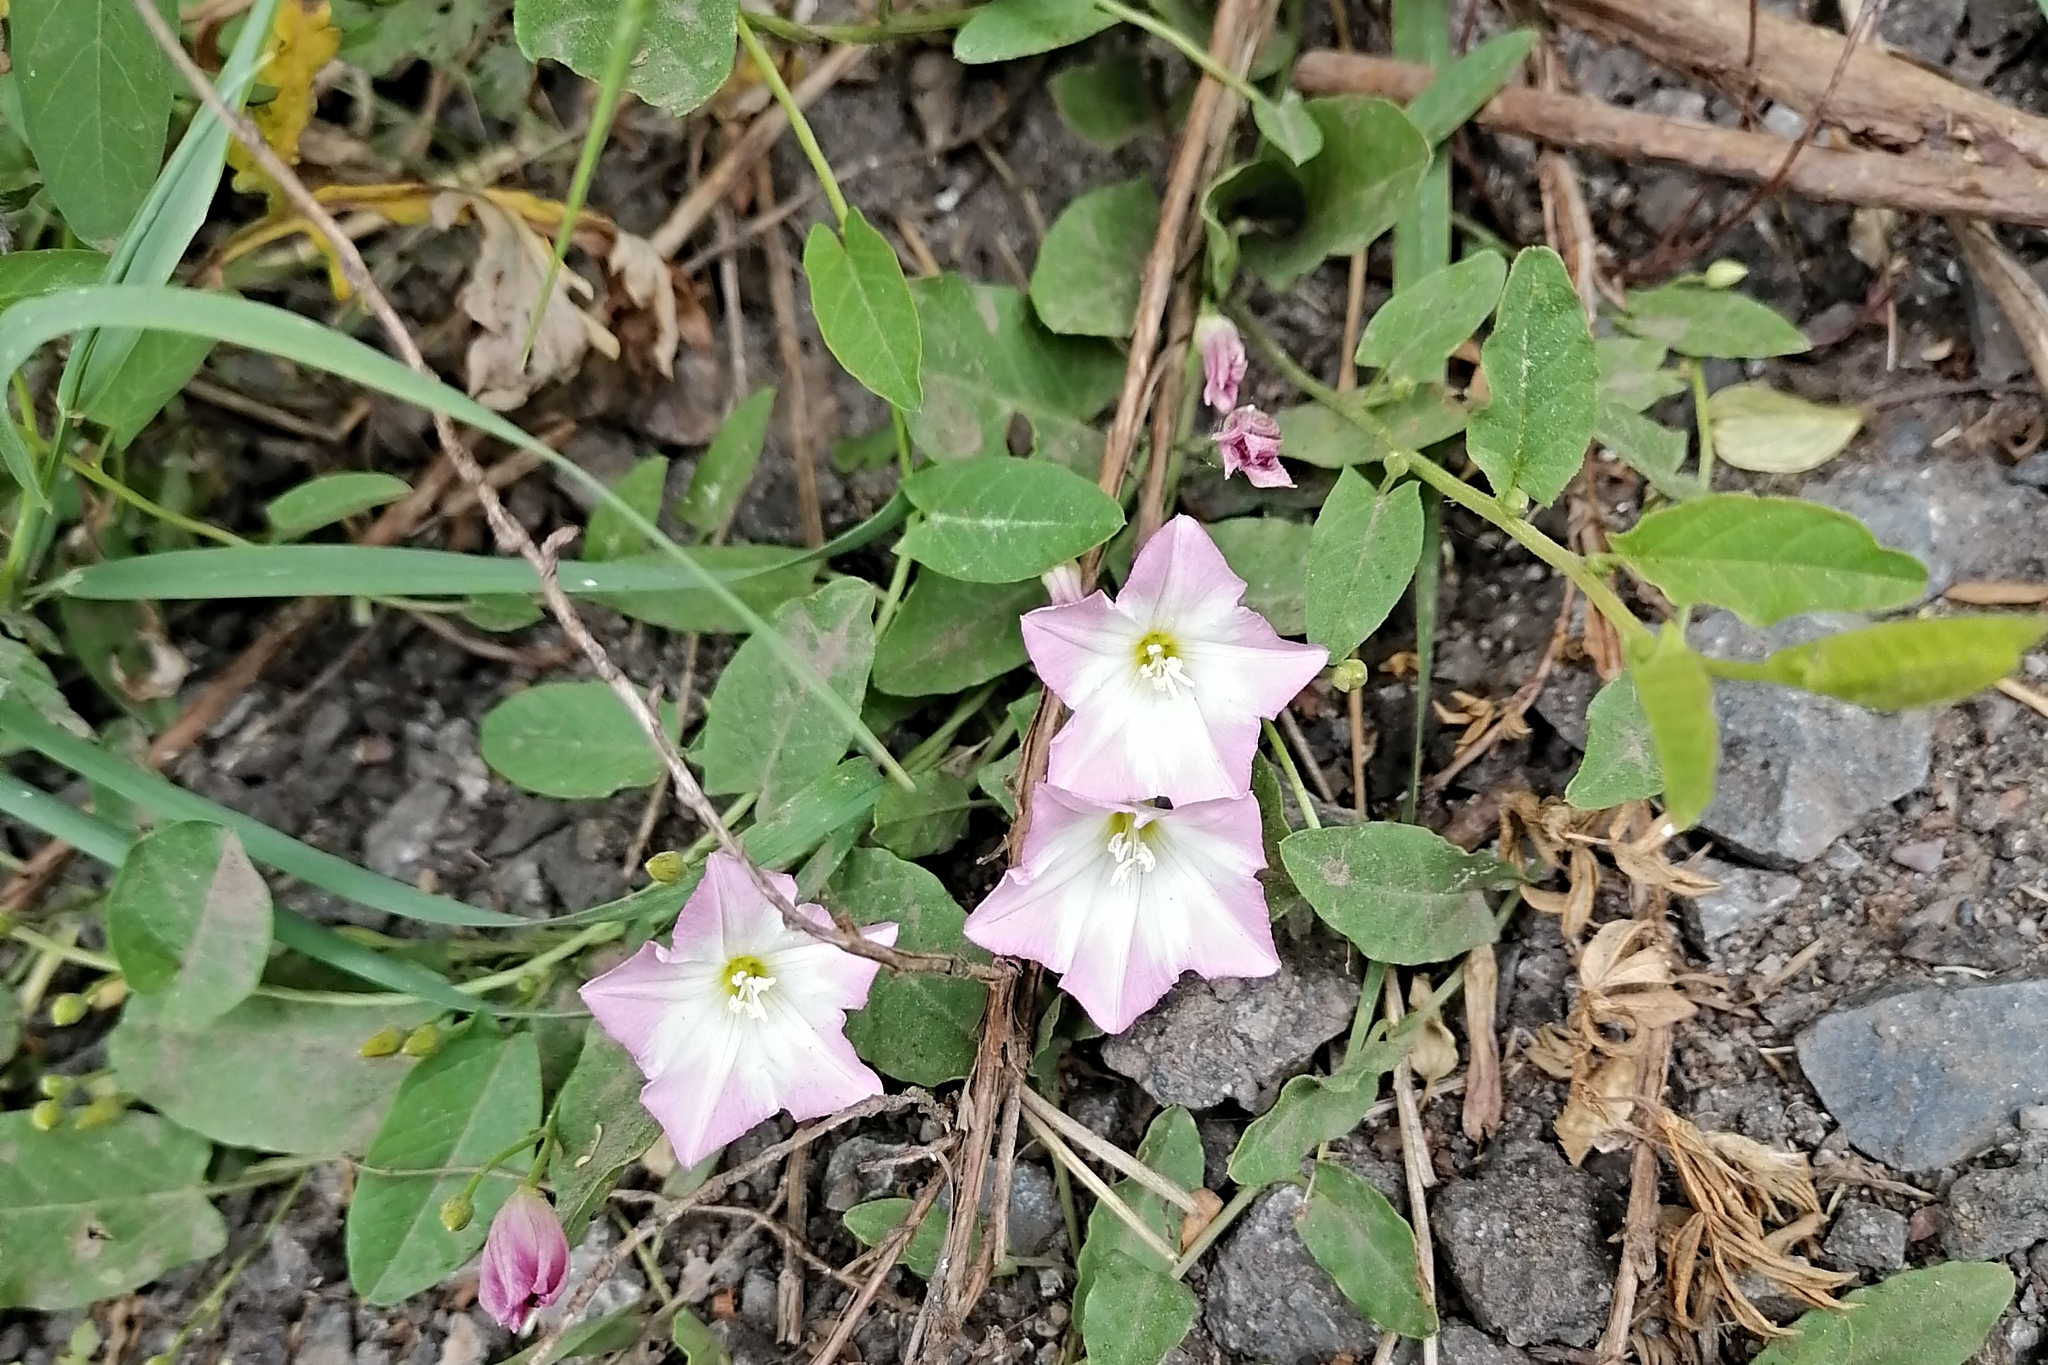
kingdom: Plantae
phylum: Tracheophyta
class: Magnoliopsida
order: Solanales
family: Convolvulaceae
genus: Convolvulus
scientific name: Convolvulus arvensis
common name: Field bindweed
